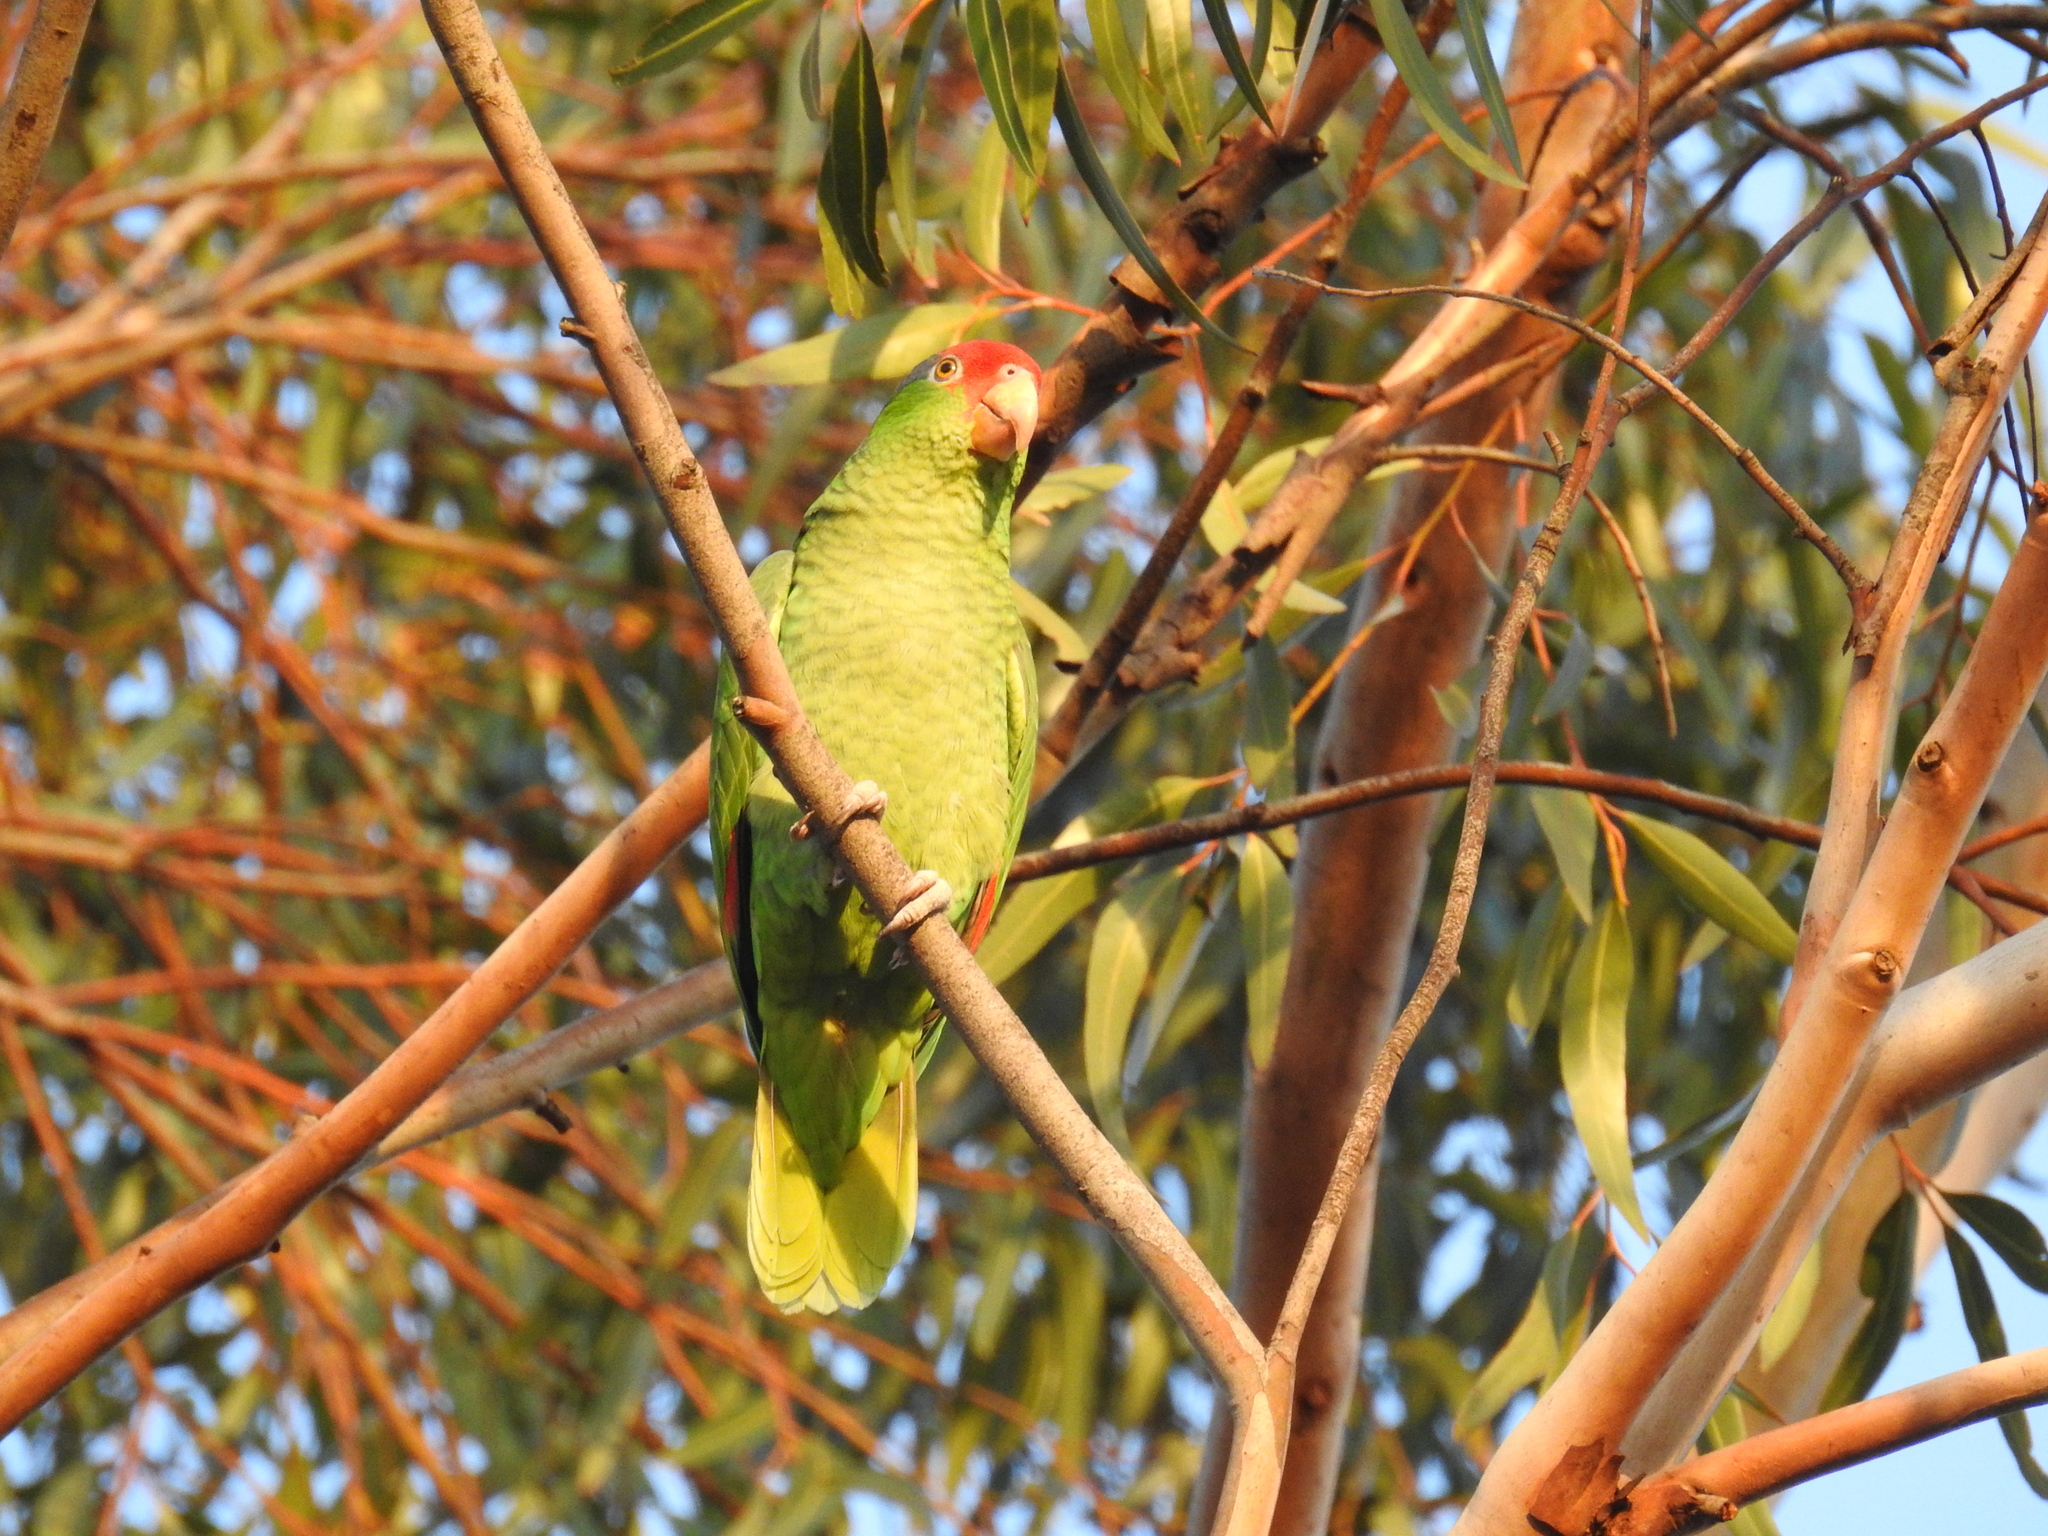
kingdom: Animalia
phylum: Chordata
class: Aves
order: Psittaciformes
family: Psittacidae
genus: Amazona
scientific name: Amazona viridigenalis
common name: Red-crowned amazon
